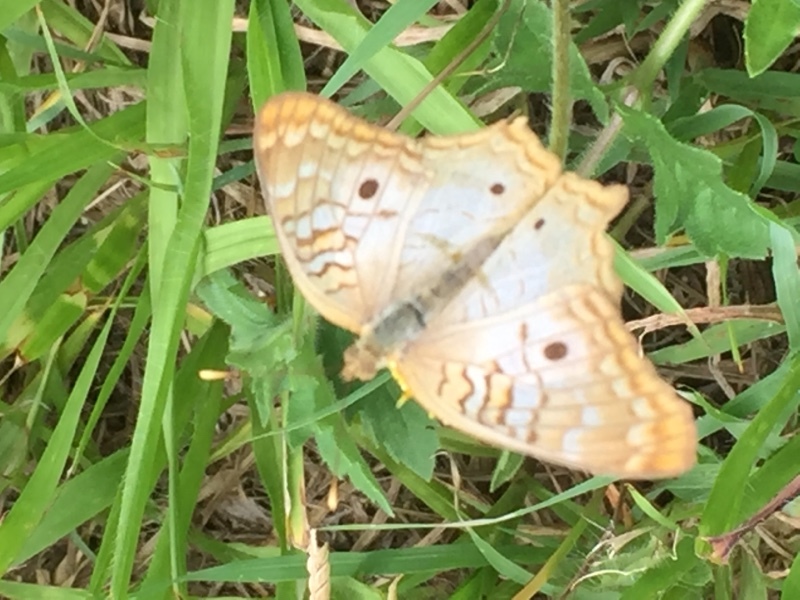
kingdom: Animalia
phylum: Arthropoda
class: Insecta
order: Lepidoptera
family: Nymphalidae
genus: Anartia
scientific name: Anartia jatrophae
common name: White peacock
